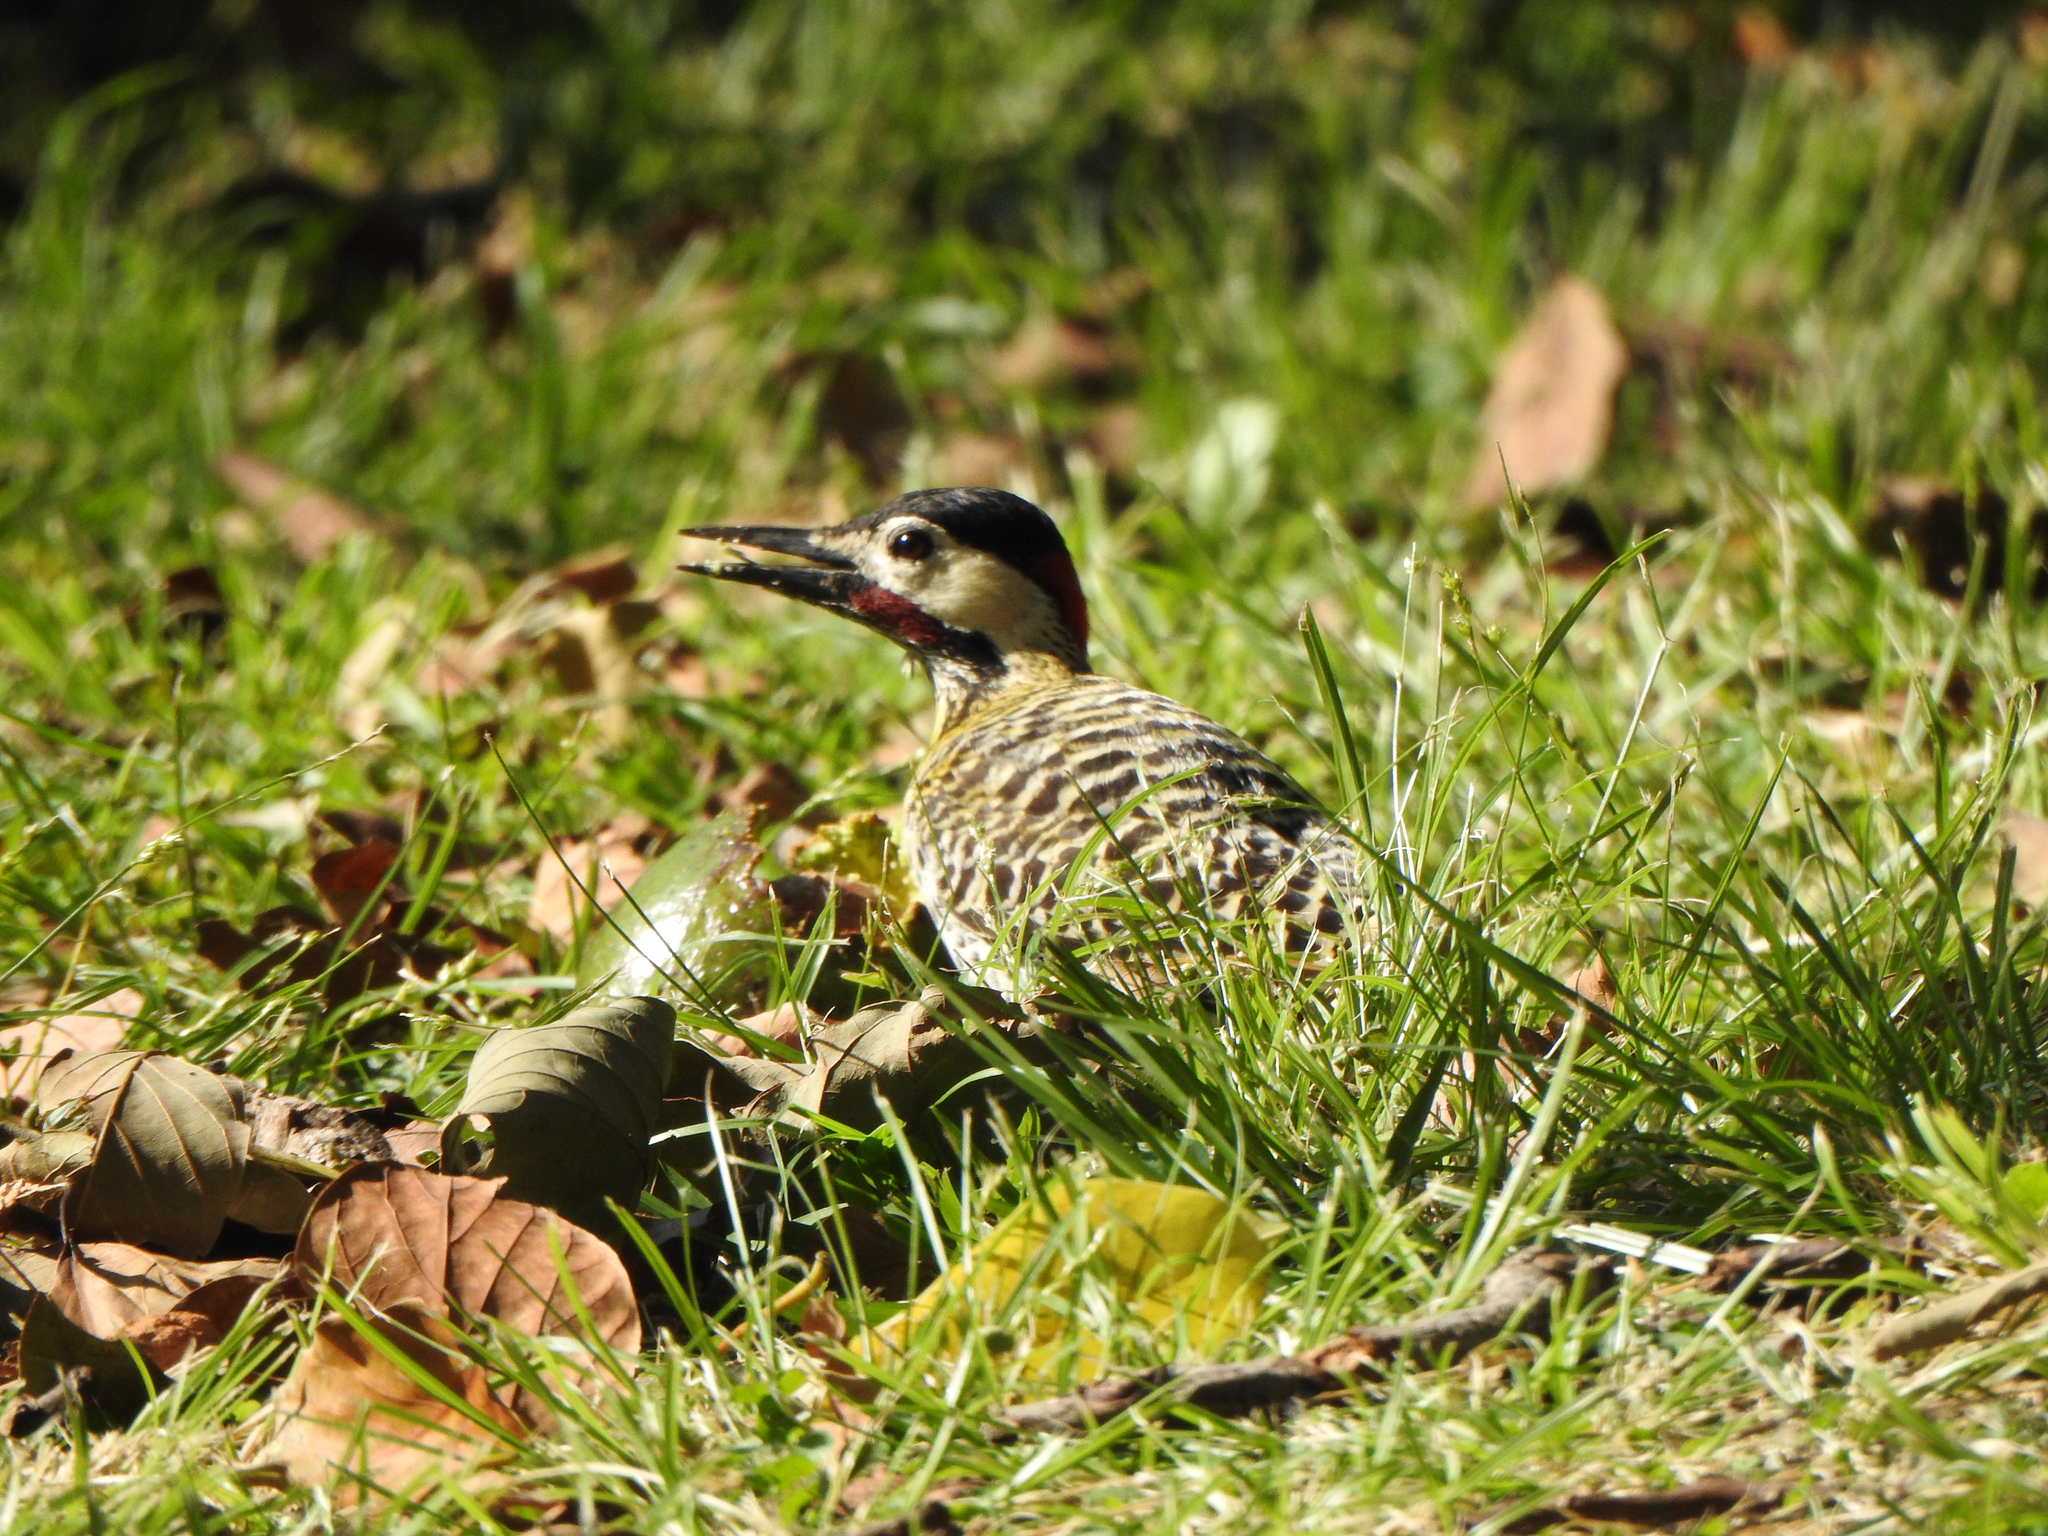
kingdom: Animalia
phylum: Chordata
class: Aves
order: Piciformes
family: Picidae
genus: Colaptes
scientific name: Colaptes melanochloros
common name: Green-barred woodpecker
